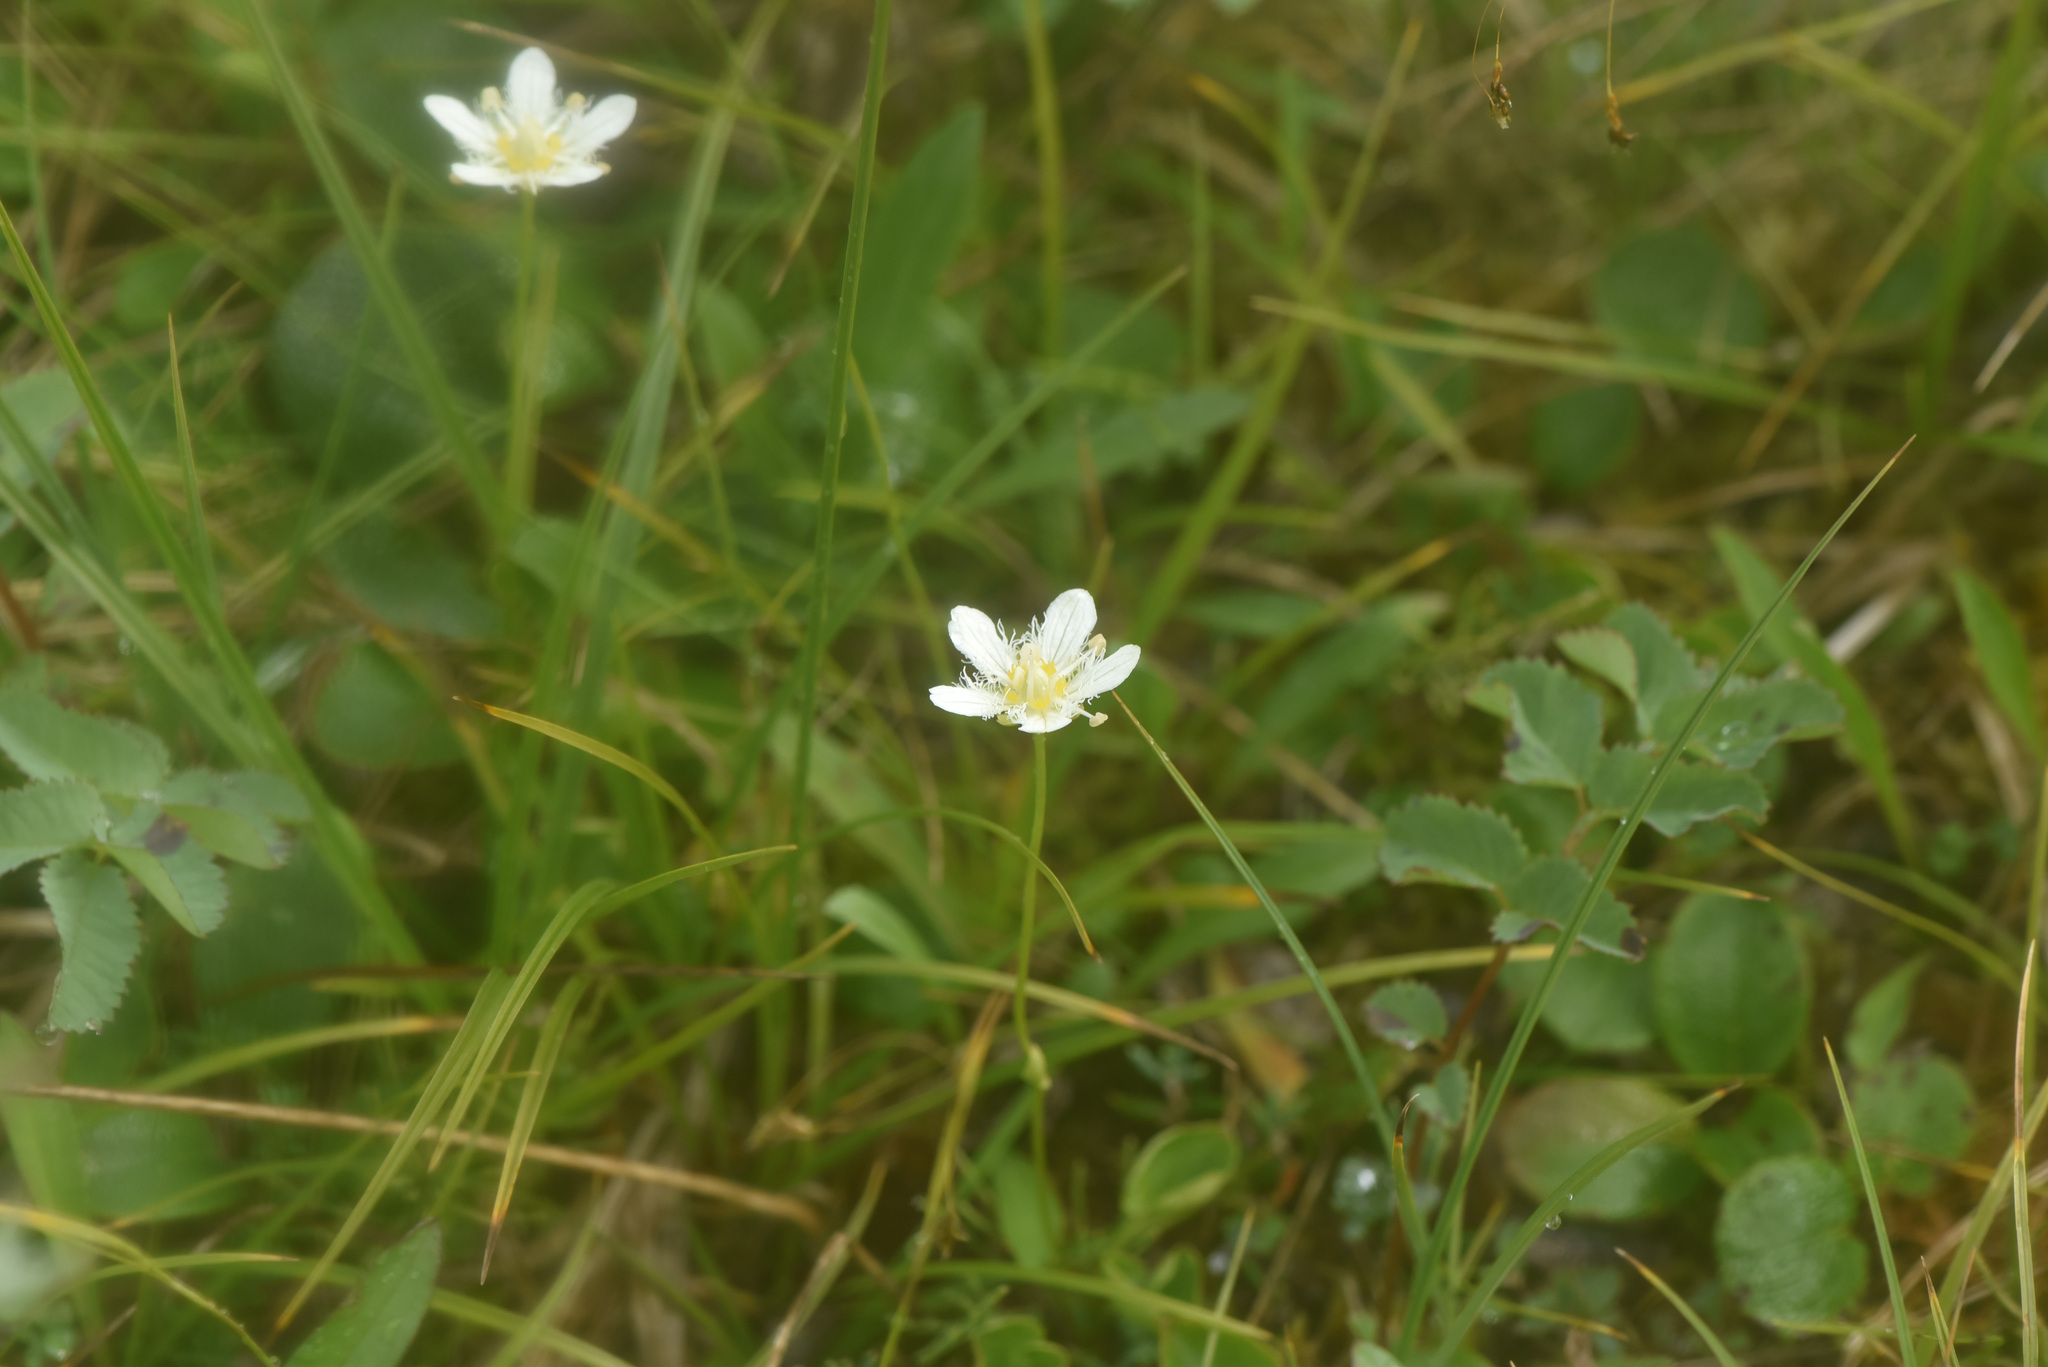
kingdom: Plantae
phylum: Tracheophyta
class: Magnoliopsida
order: Celastrales
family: Parnassiaceae
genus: Parnassia
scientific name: Parnassia fimbriata
